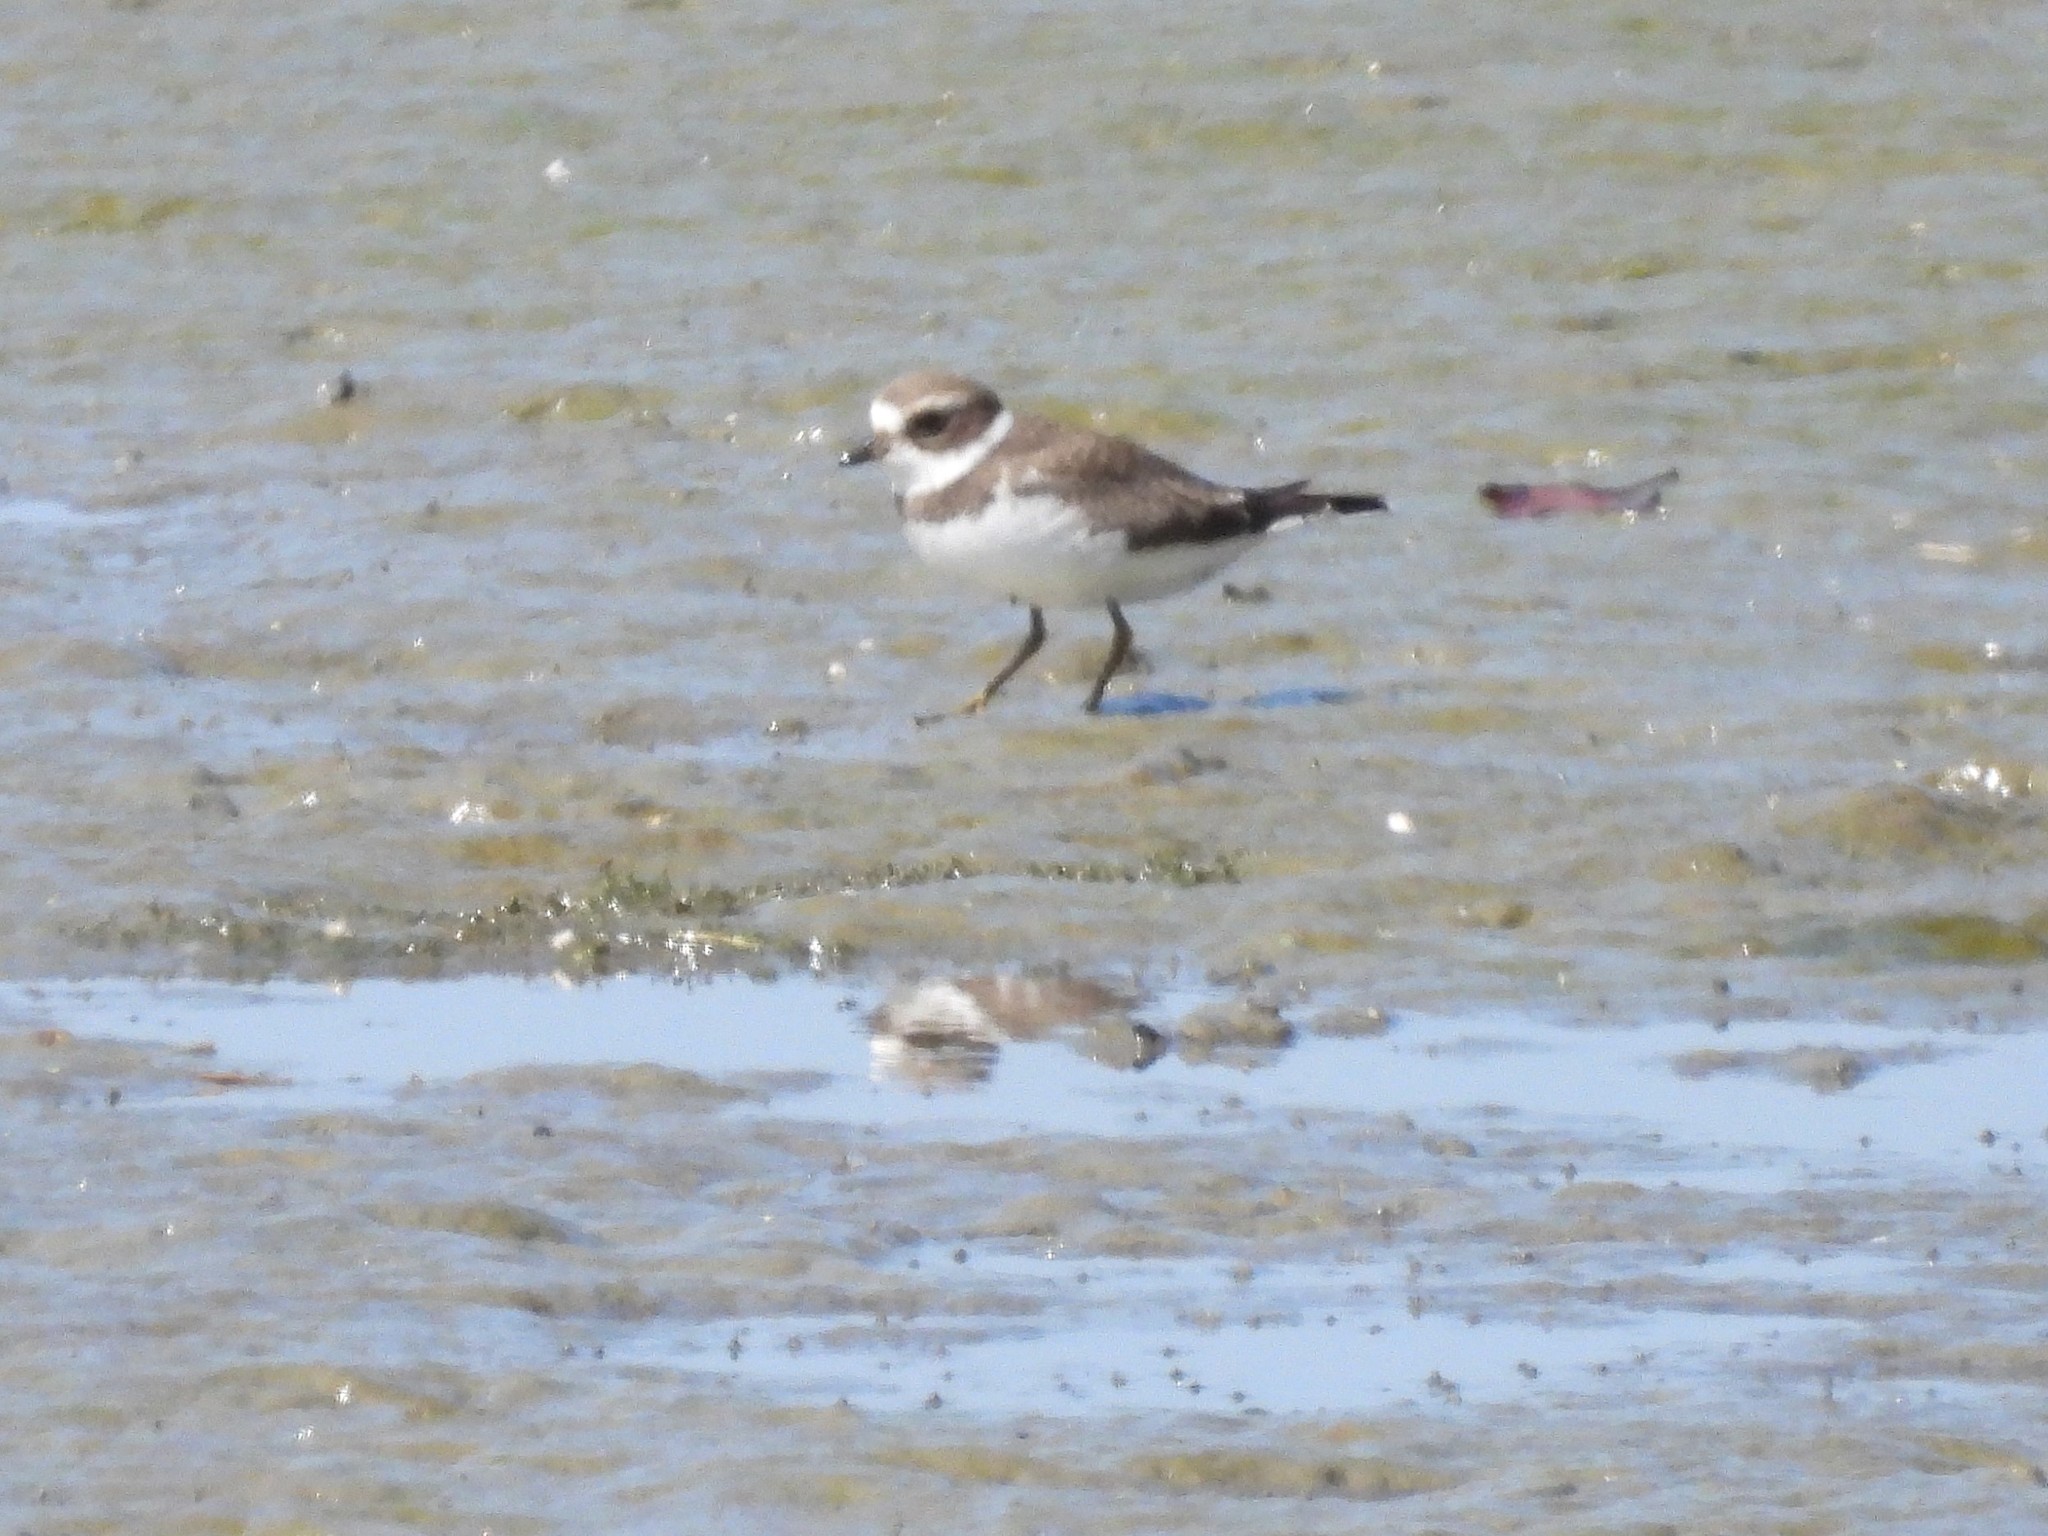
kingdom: Animalia
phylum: Chordata
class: Aves
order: Charadriiformes
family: Charadriidae
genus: Charadrius
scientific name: Charadrius semipalmatus
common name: Semipalmated plover
